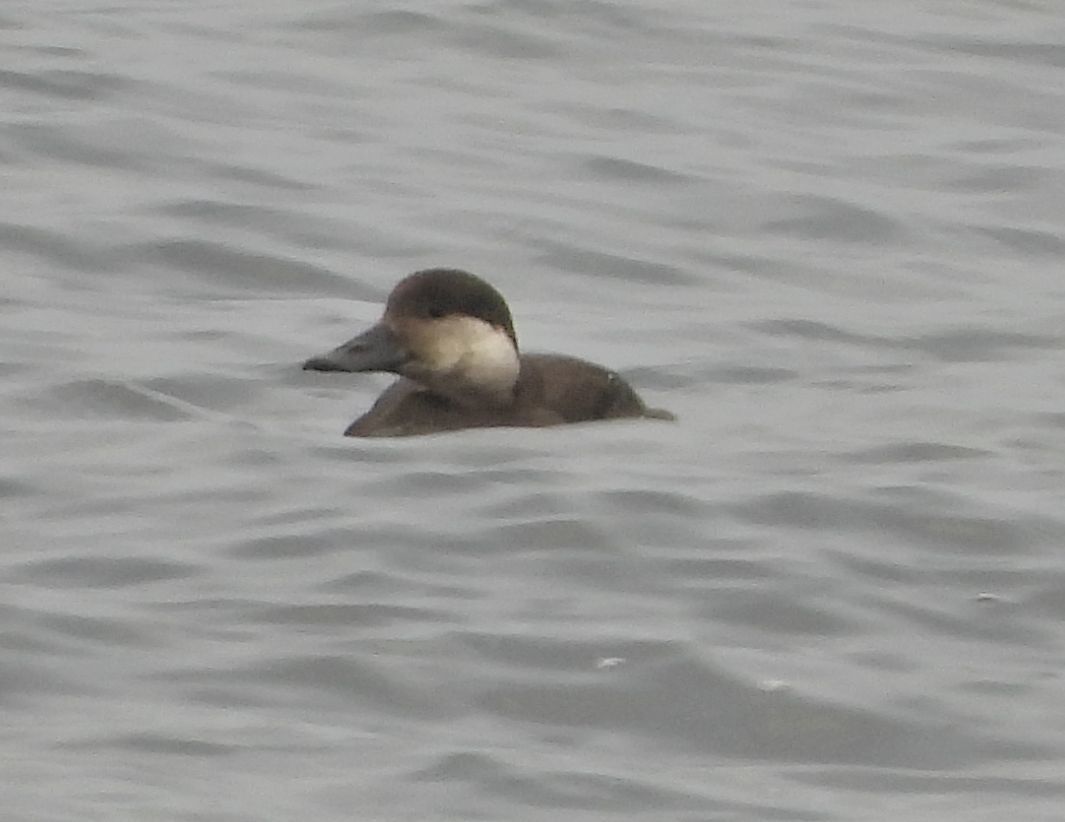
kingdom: Animalia
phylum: Chordata
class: Aves
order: Anseriformes
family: Anatidae
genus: Melanitta
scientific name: Melanitta americana
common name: Black scoter
